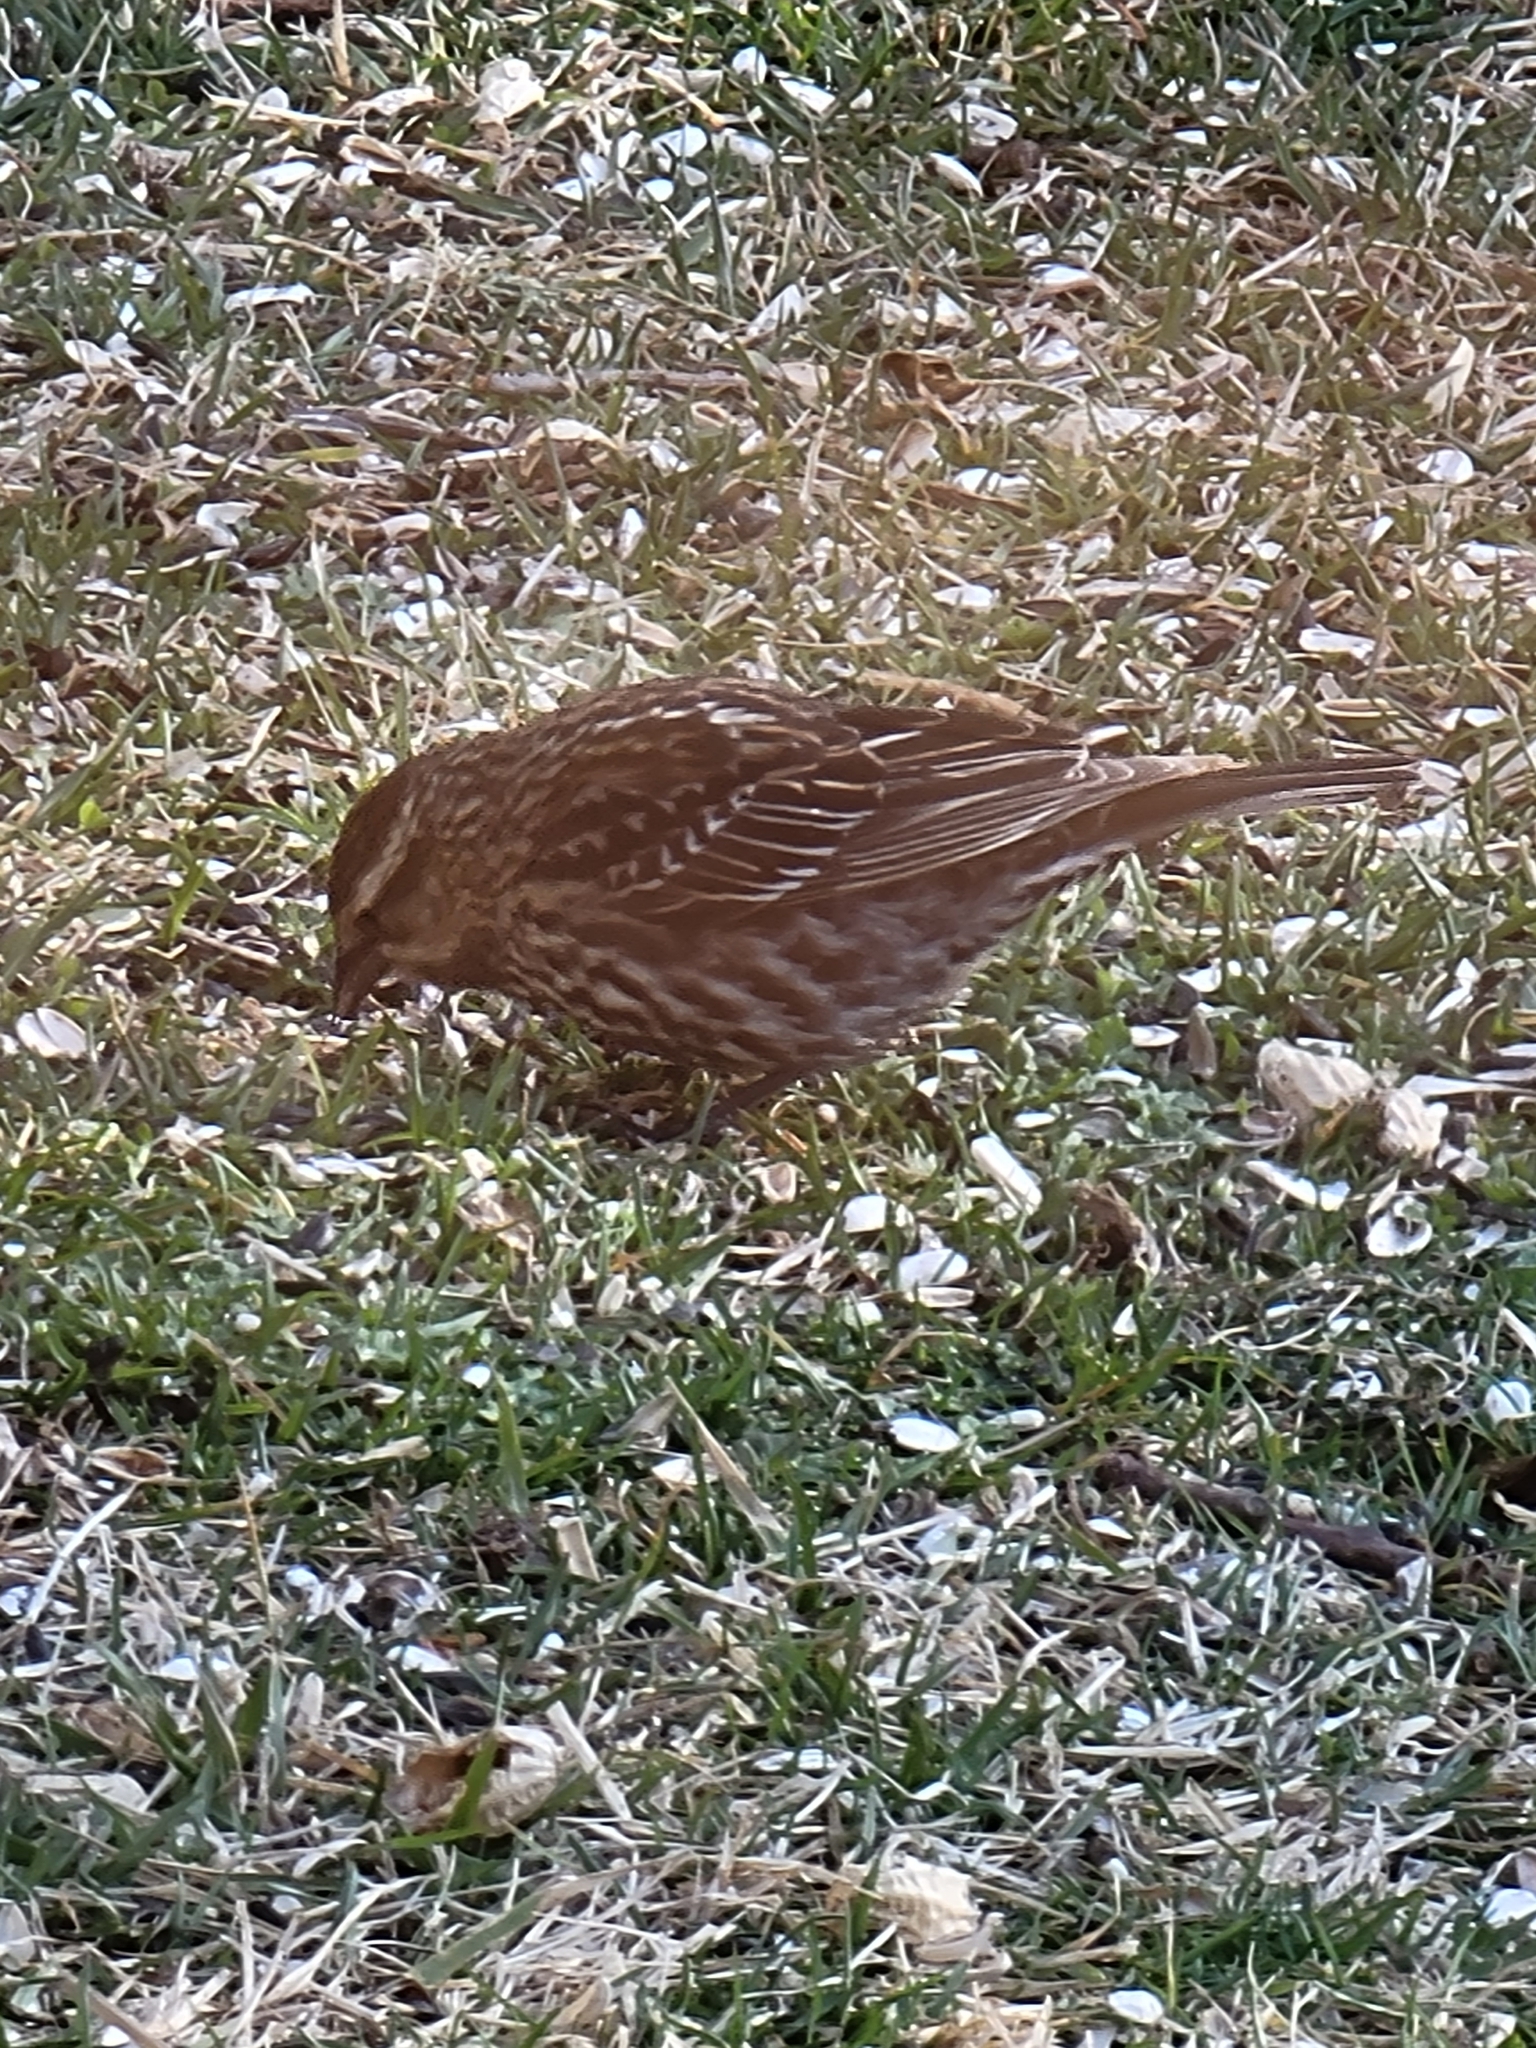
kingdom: Animalia
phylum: Chordata
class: Aves
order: Passeriformes
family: Icteridae
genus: Agelaius
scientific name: Agelaius phoeniceus
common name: Red-winged blackbird
